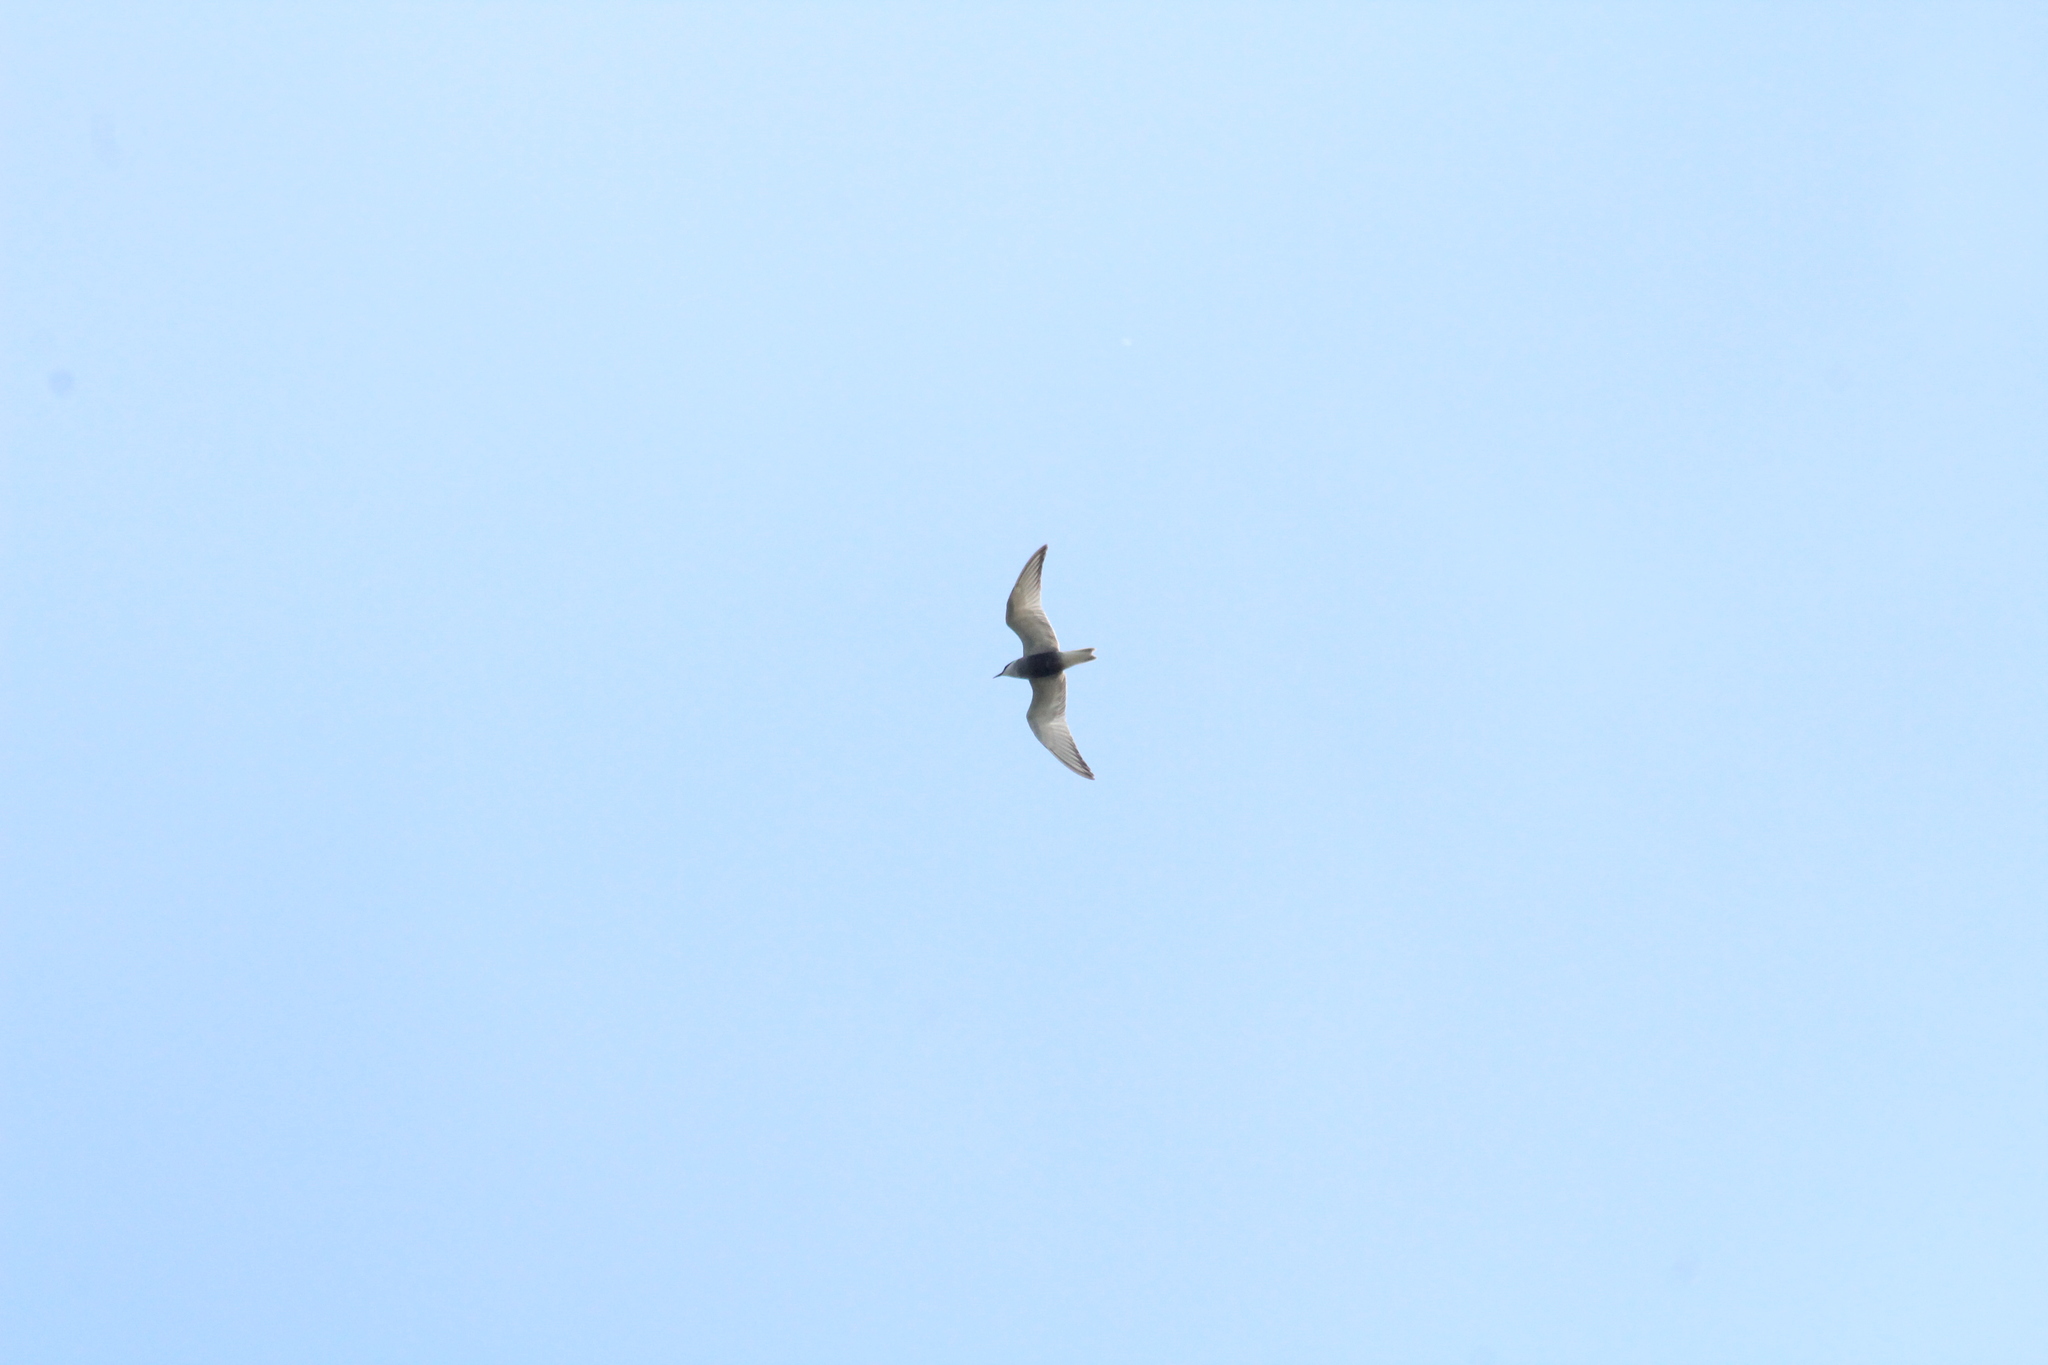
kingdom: Animalia
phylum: Chordata
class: Aves
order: Charadriiformes
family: Laridae
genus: Chlidonias
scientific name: Chlidonias hybrida
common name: Whiskered tern
